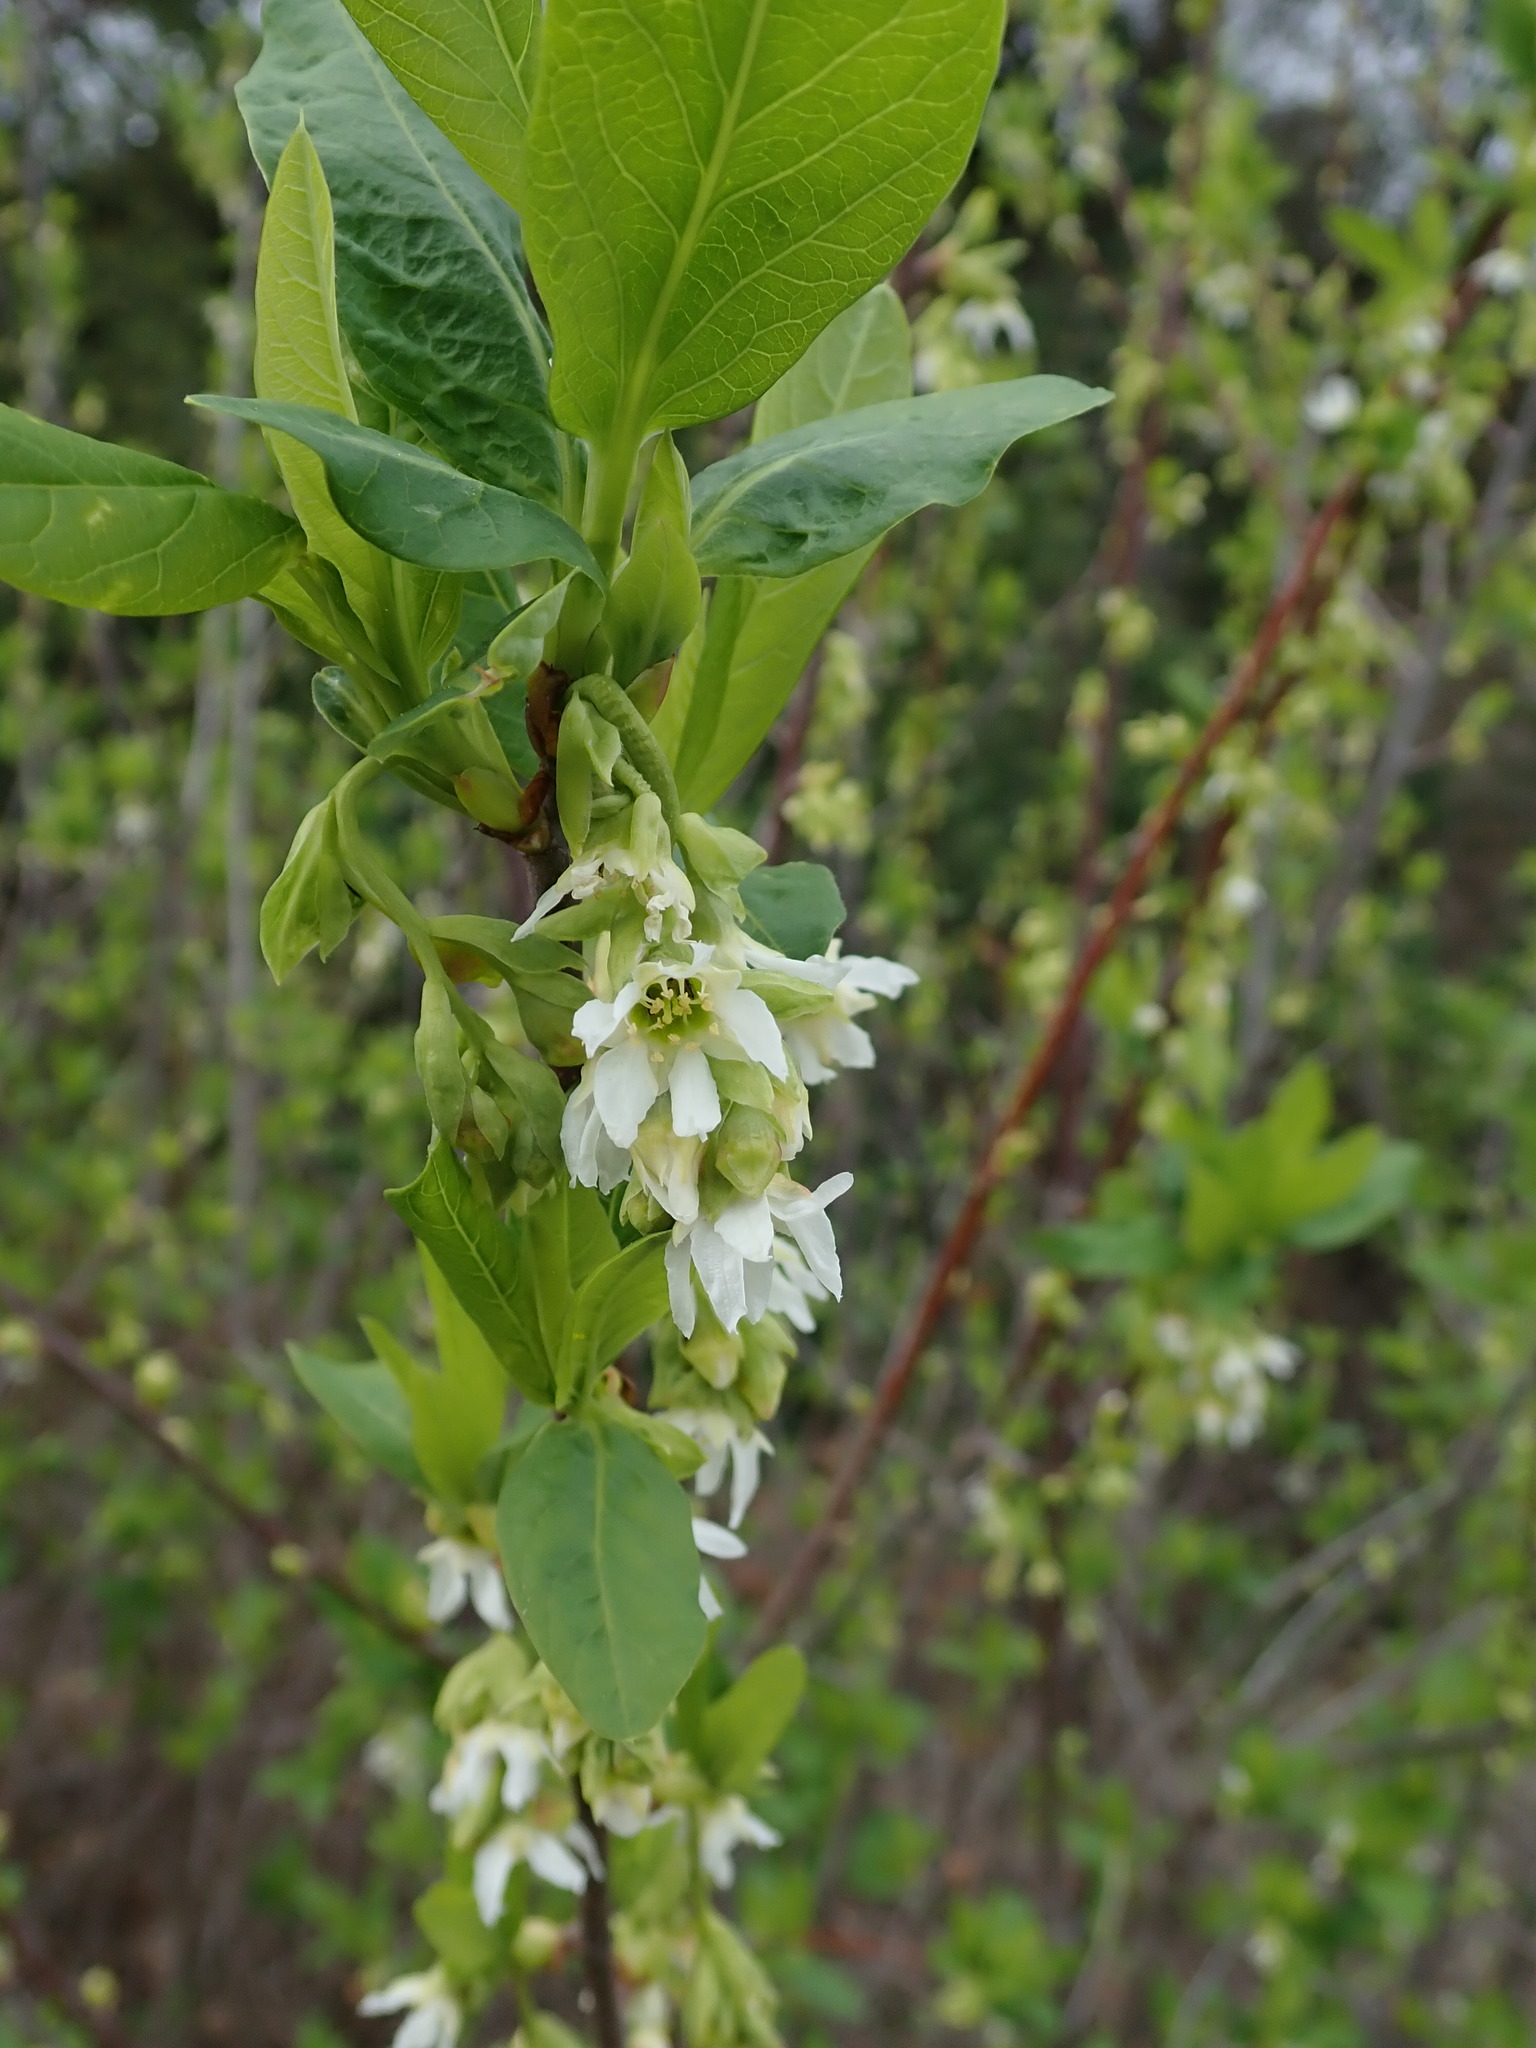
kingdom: Plantae
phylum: Tracheophyta
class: Magnoliopsida
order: Rosales
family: Rosaceae
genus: Oemleria
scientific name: Oemleria cerasiformis
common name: Osoberry
